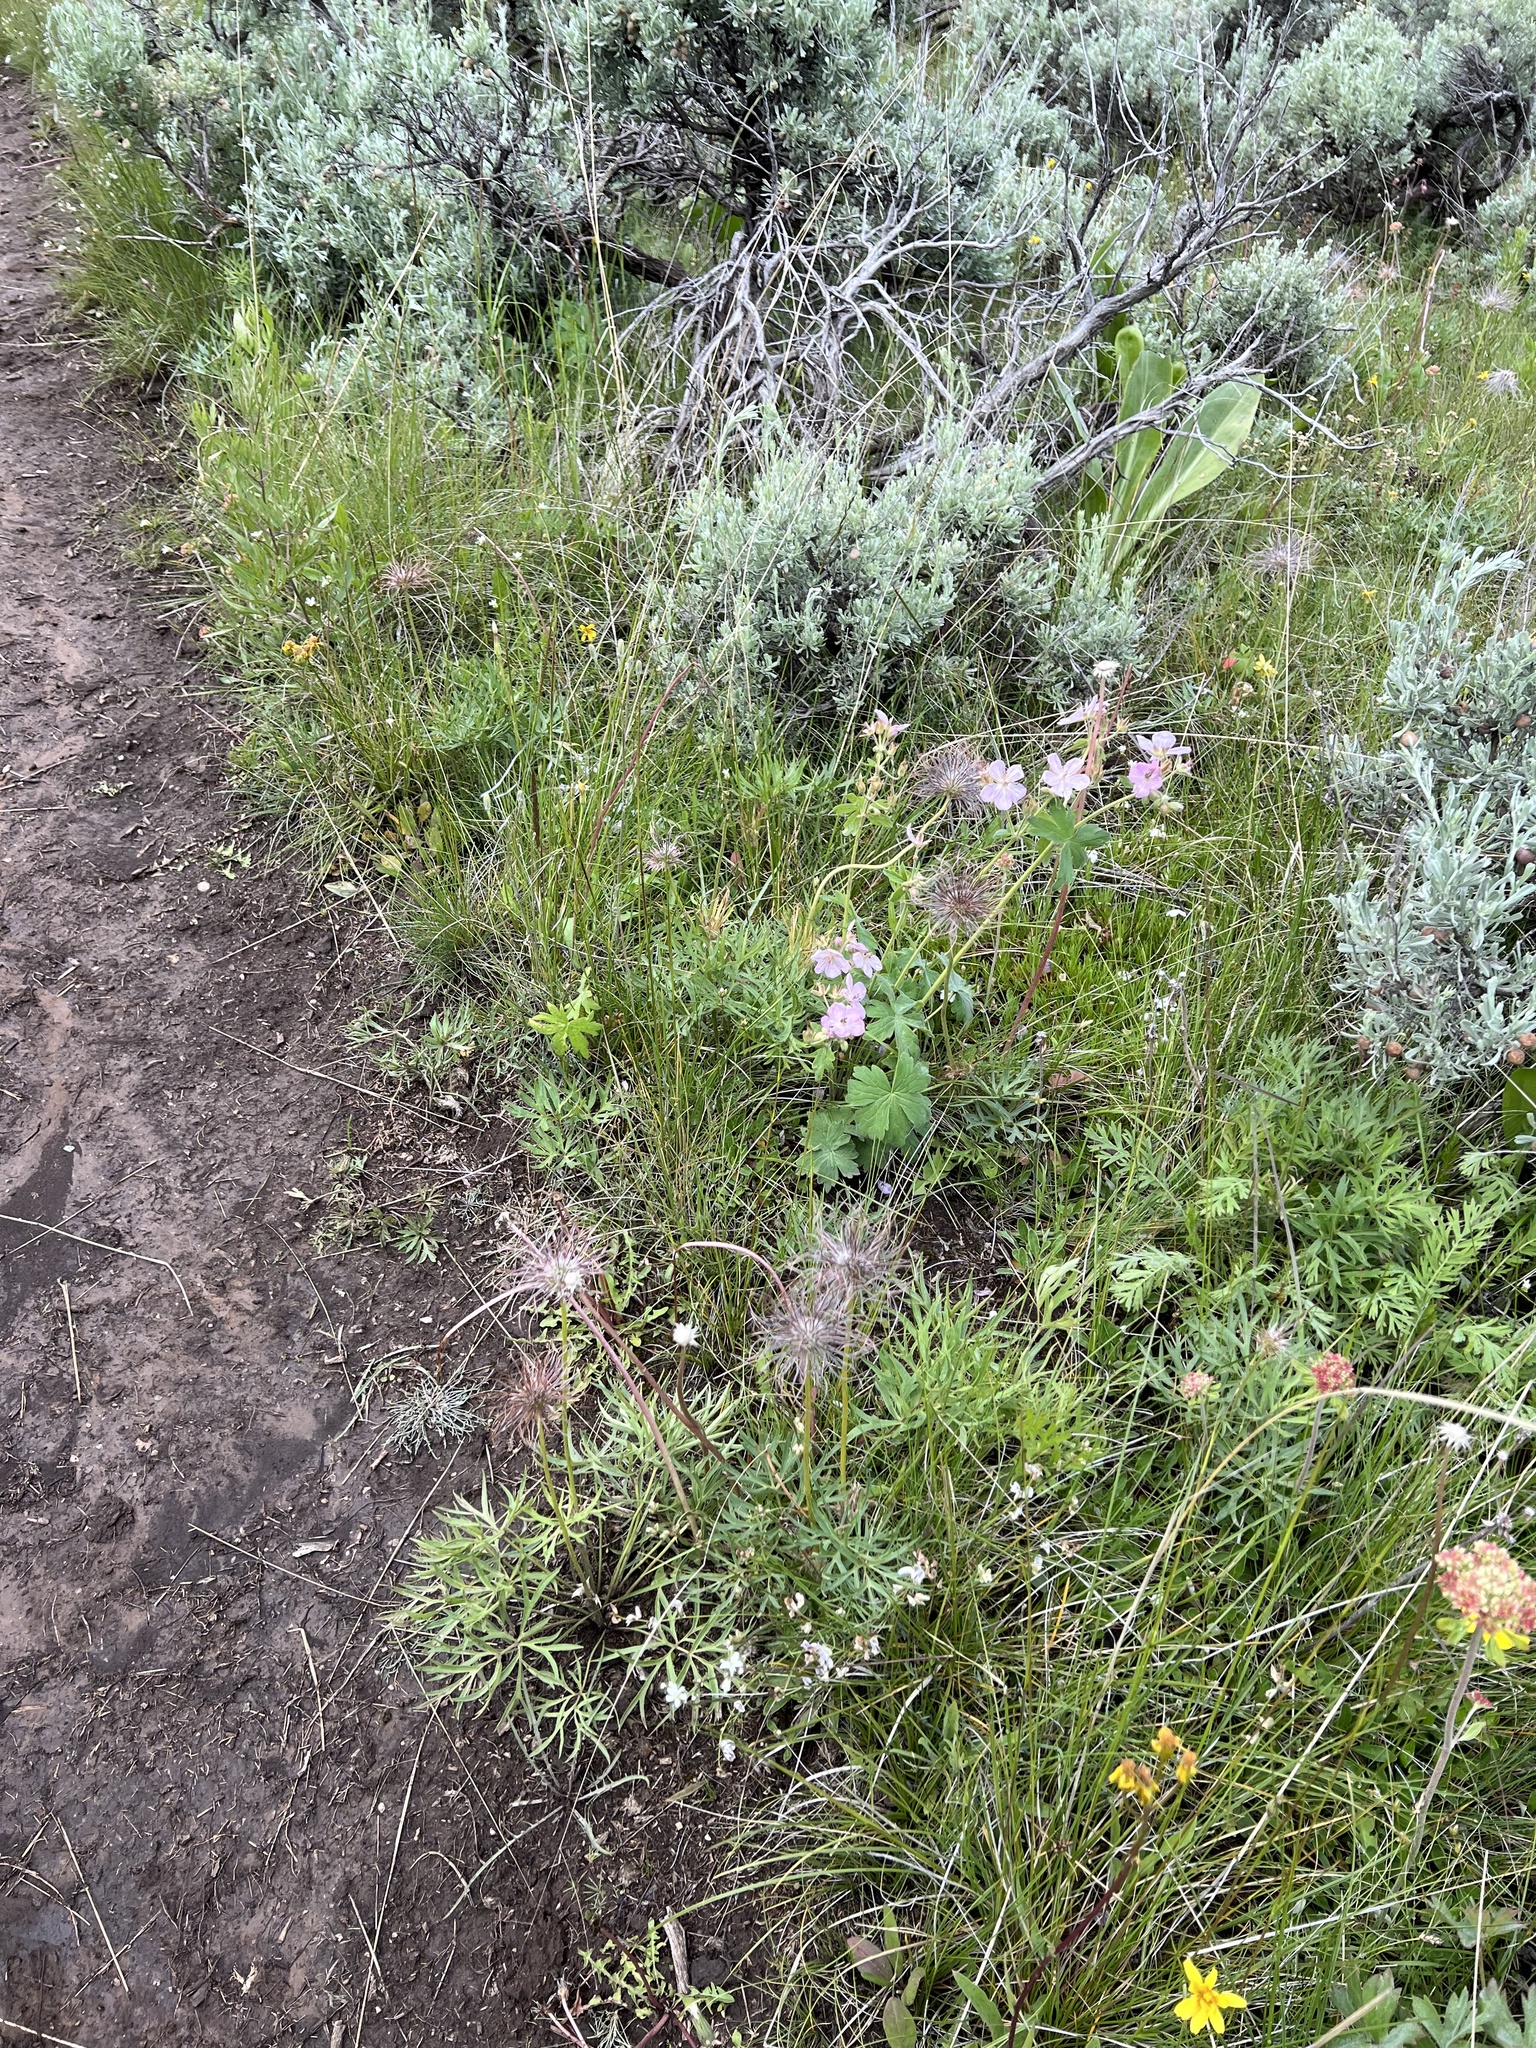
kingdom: Plantae
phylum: Tracheophyta
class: Magnoliopsida
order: Ranunculales
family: Ranunculaceae
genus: Pulsatilla
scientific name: Pulsatilla nuttalliana
